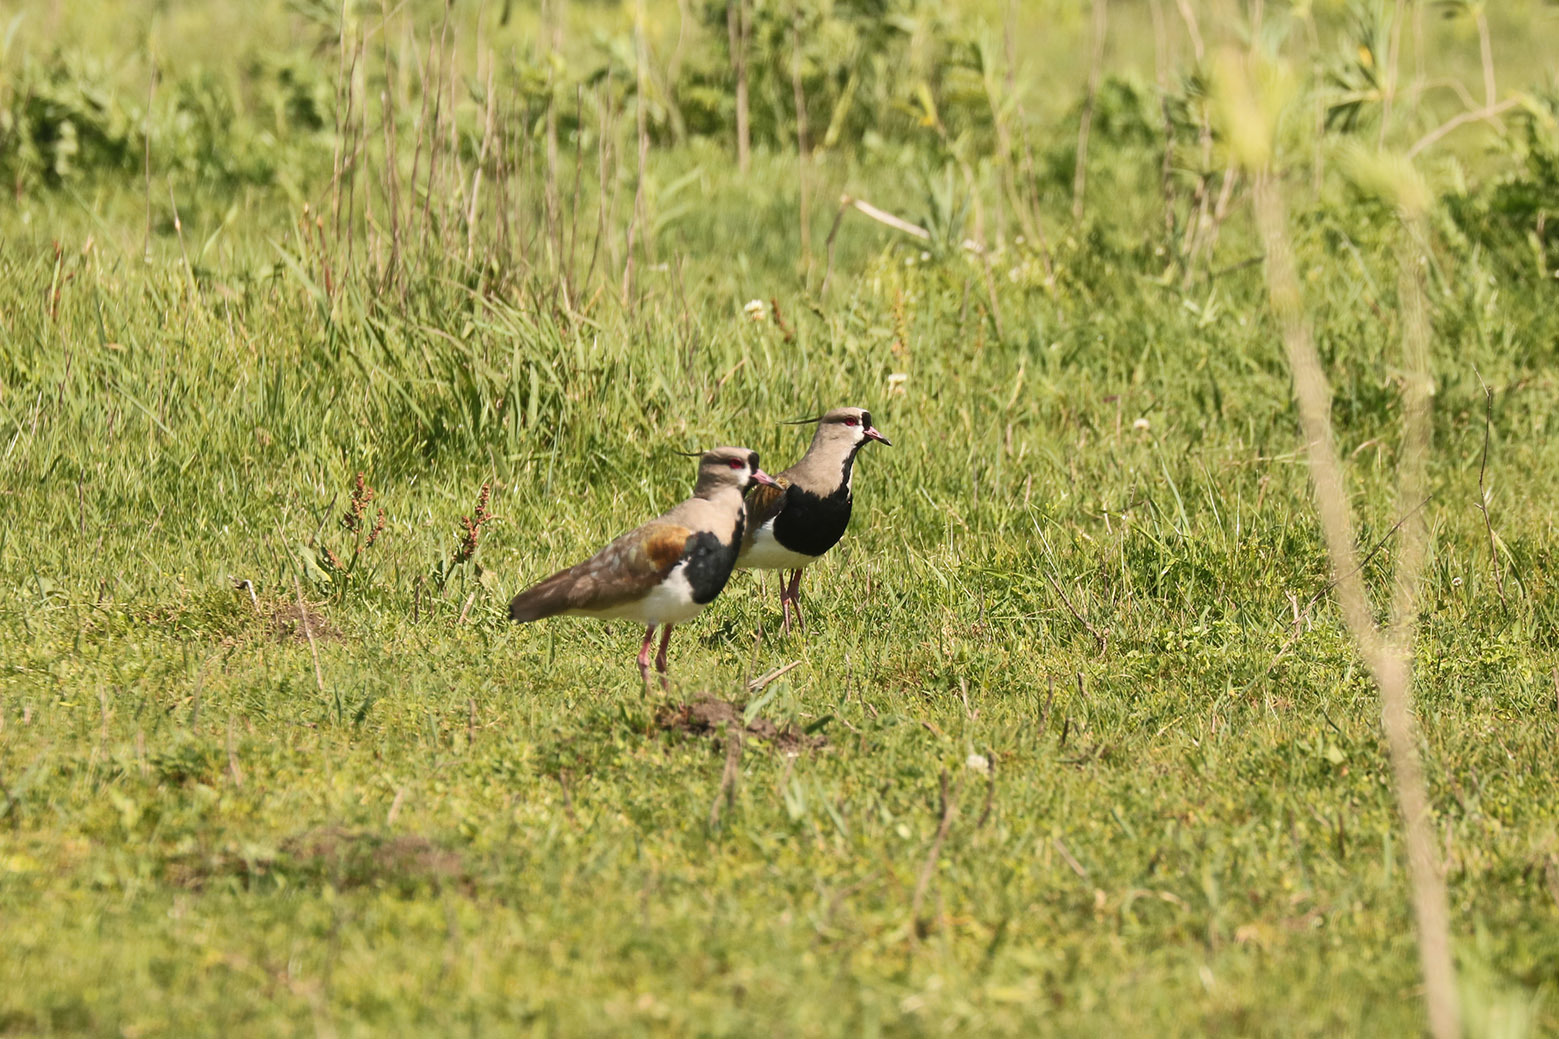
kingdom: Animalia
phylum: Chordata
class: Aves
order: Charadriiformes
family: Charadriidae
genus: Vanellus
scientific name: Vanellus chilensis
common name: Southern lapwing
